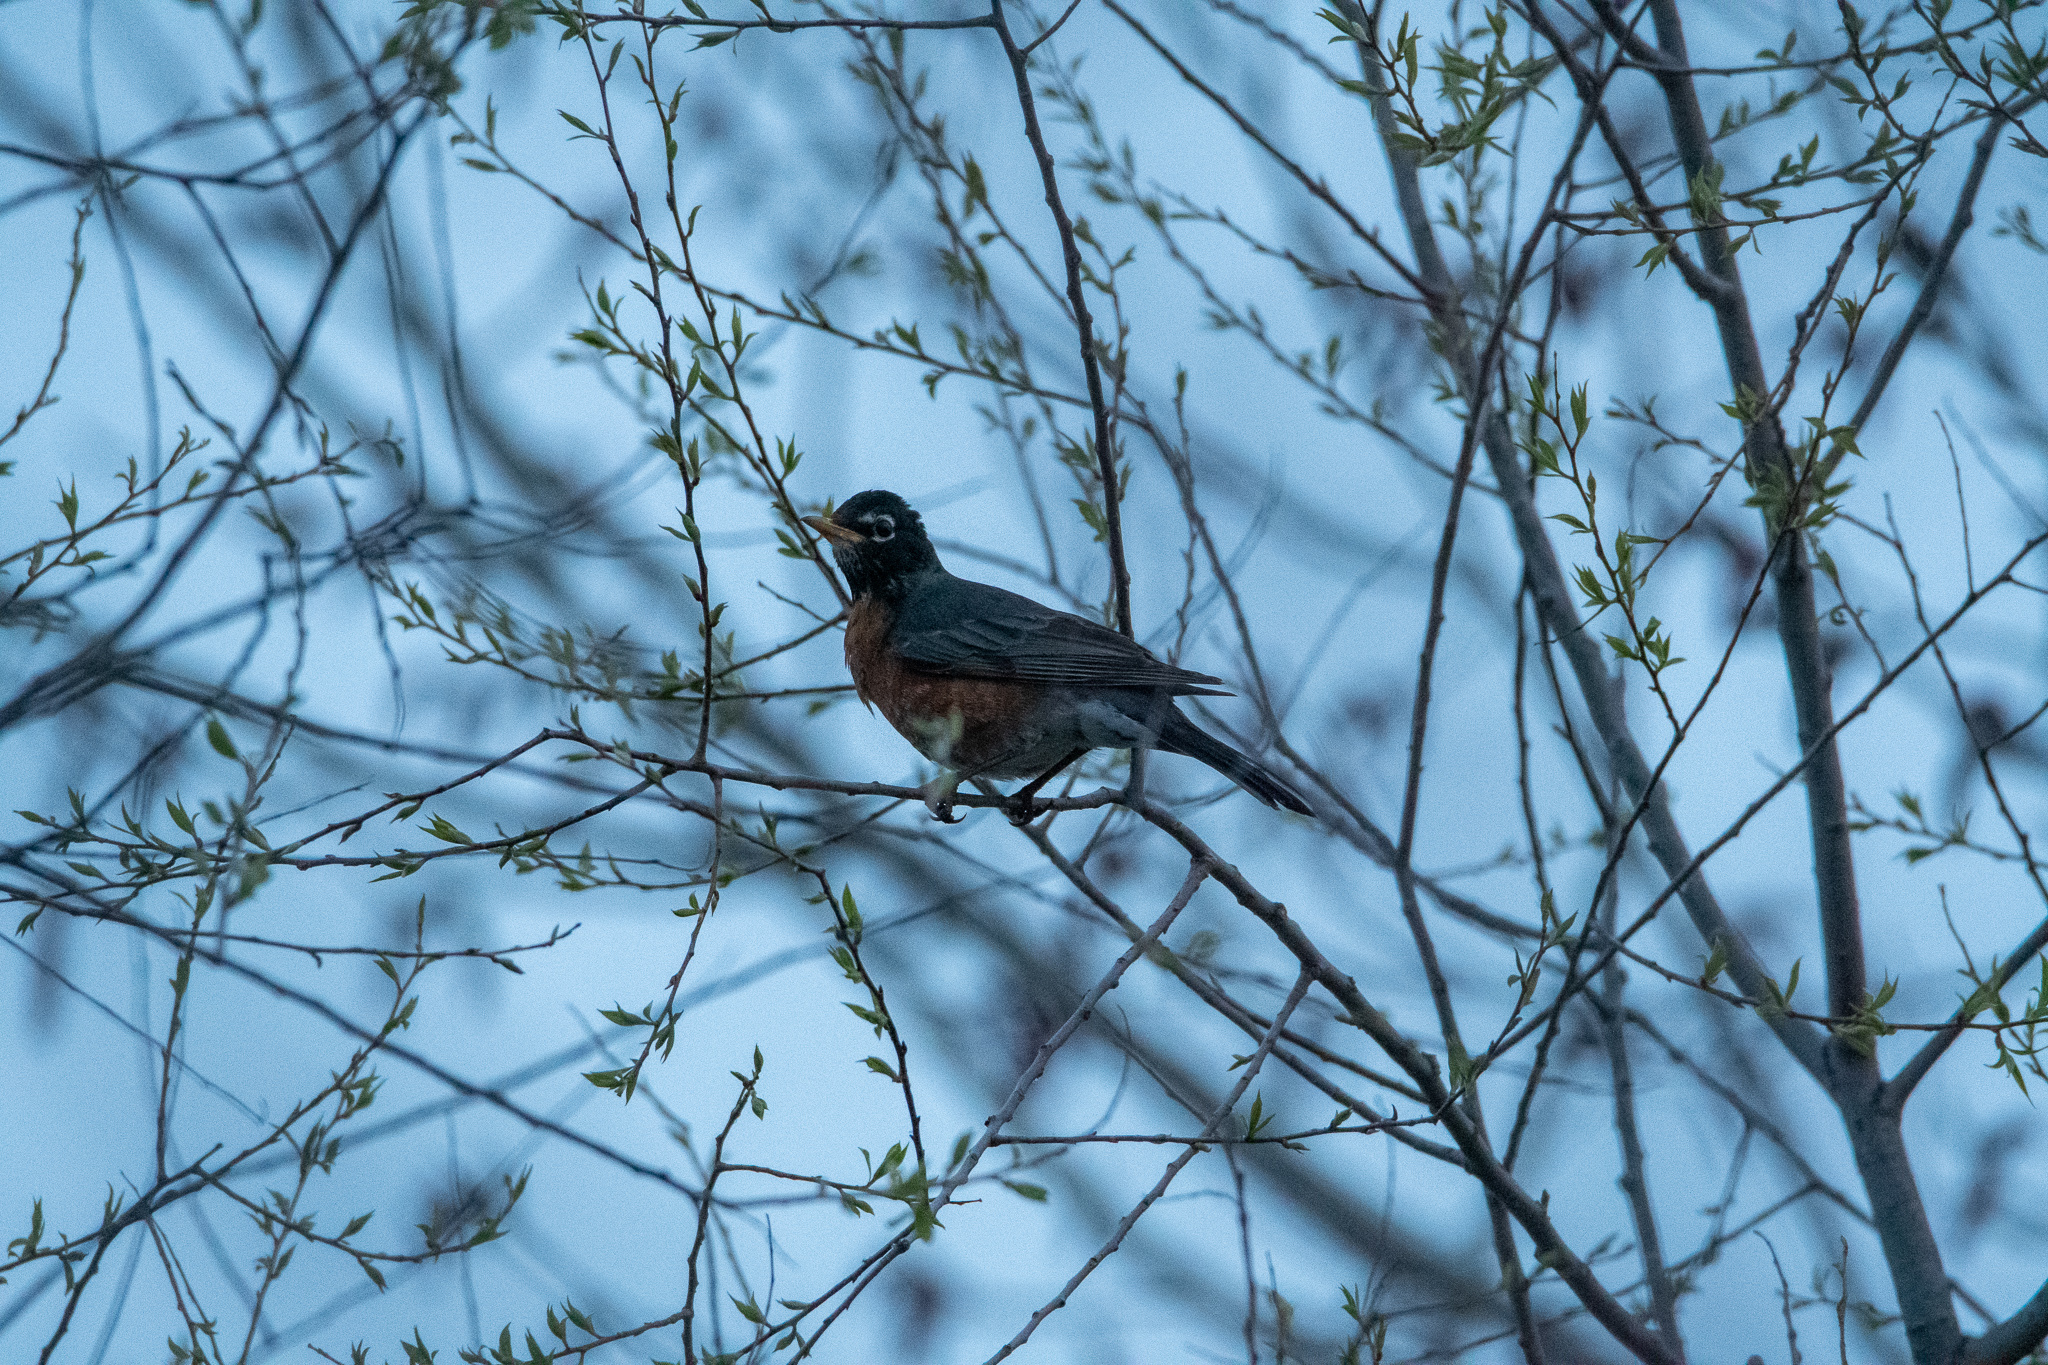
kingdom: Animalia
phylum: Chordata
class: Aves
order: Passeriformes
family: Turdidae
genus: Turdus
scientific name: Turdus migratorius
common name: American robin
